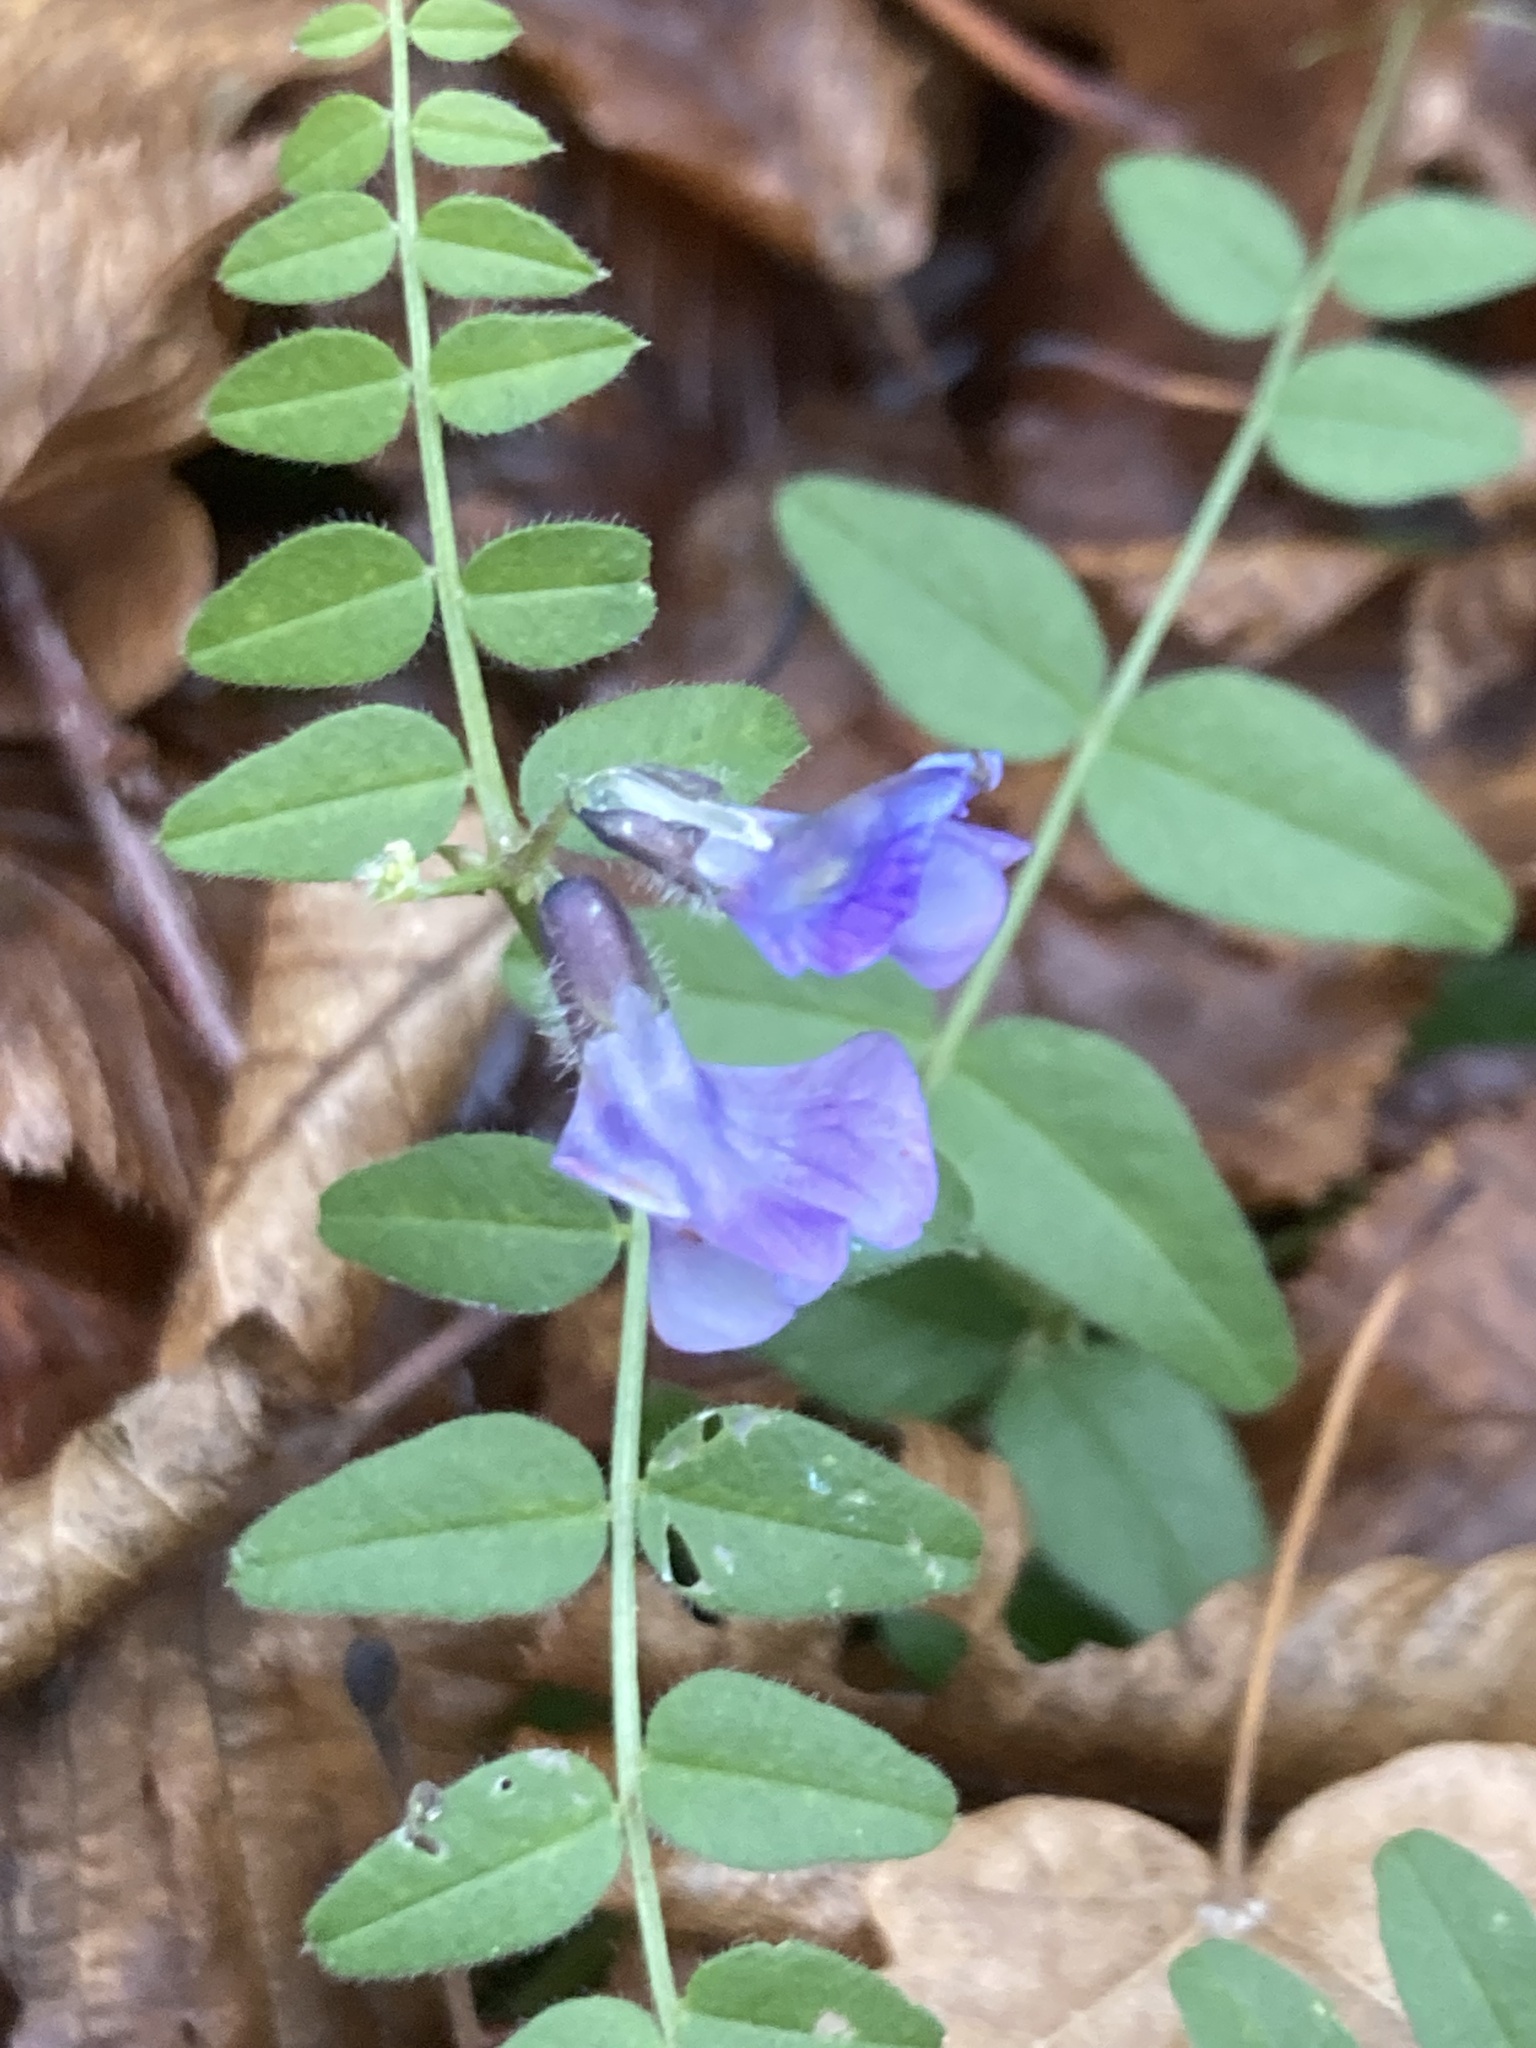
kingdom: Plantae
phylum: Tracheophyta
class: Magnoliopsida
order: Fabales
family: Fabaceae
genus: Vicia
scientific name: Vicia sepium
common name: Bush vetch
